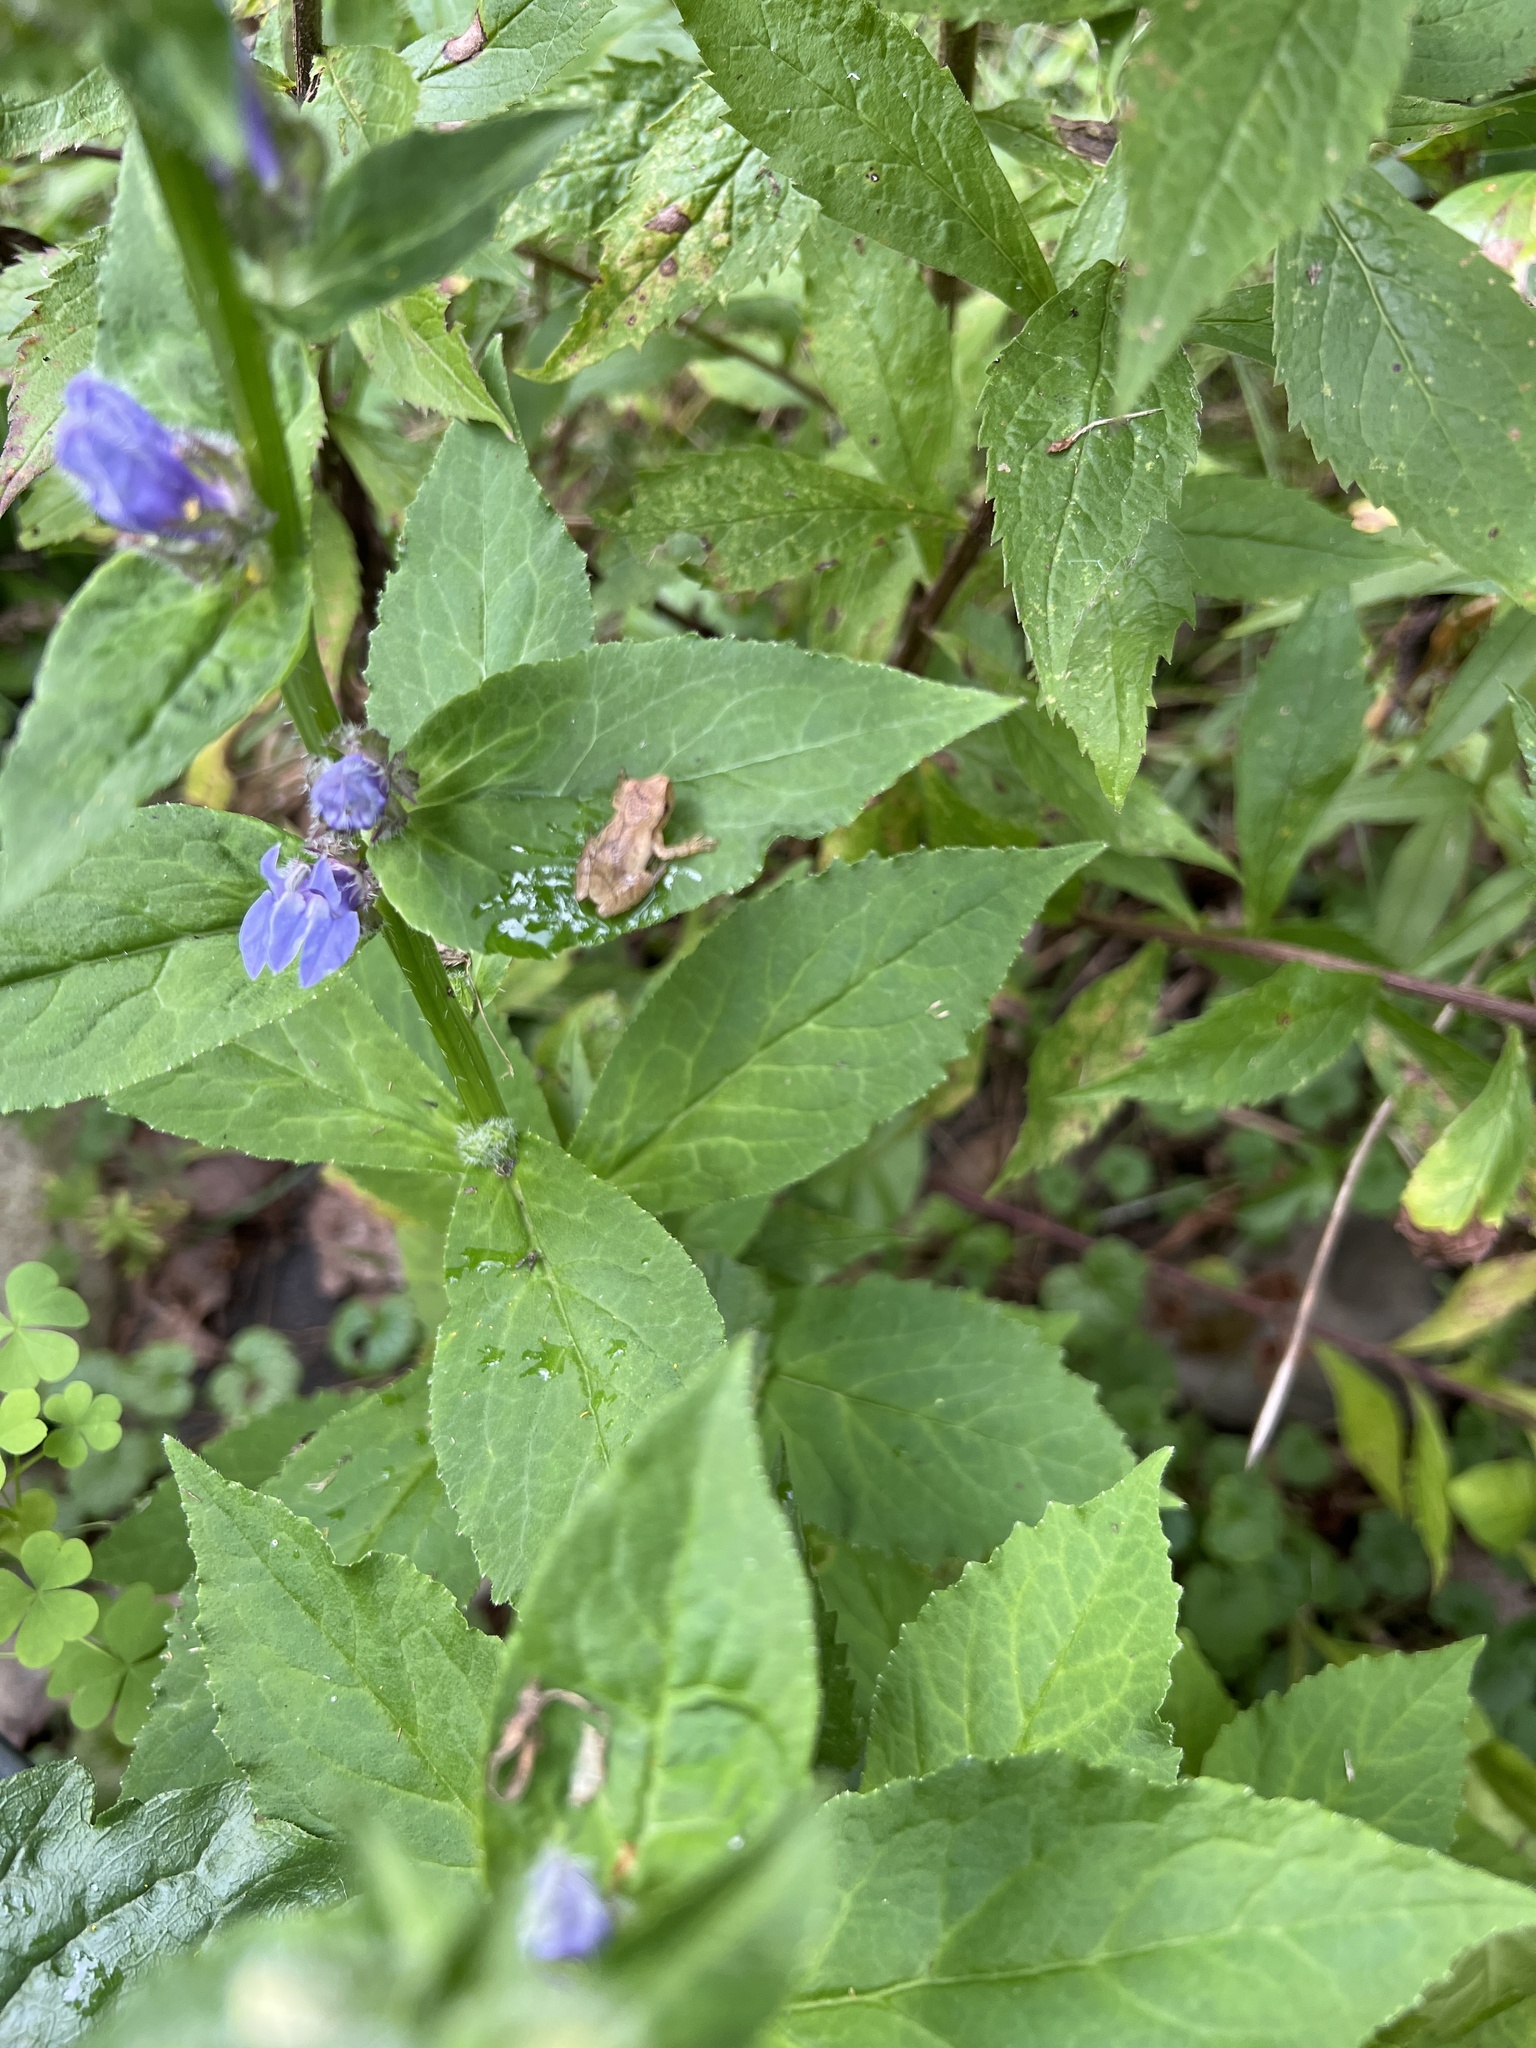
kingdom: Animalia
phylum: Chordata
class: Amphibia
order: Anura
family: Hylidae
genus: Pseudacris
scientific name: Pseudacris crucifer
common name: Spring peeper
